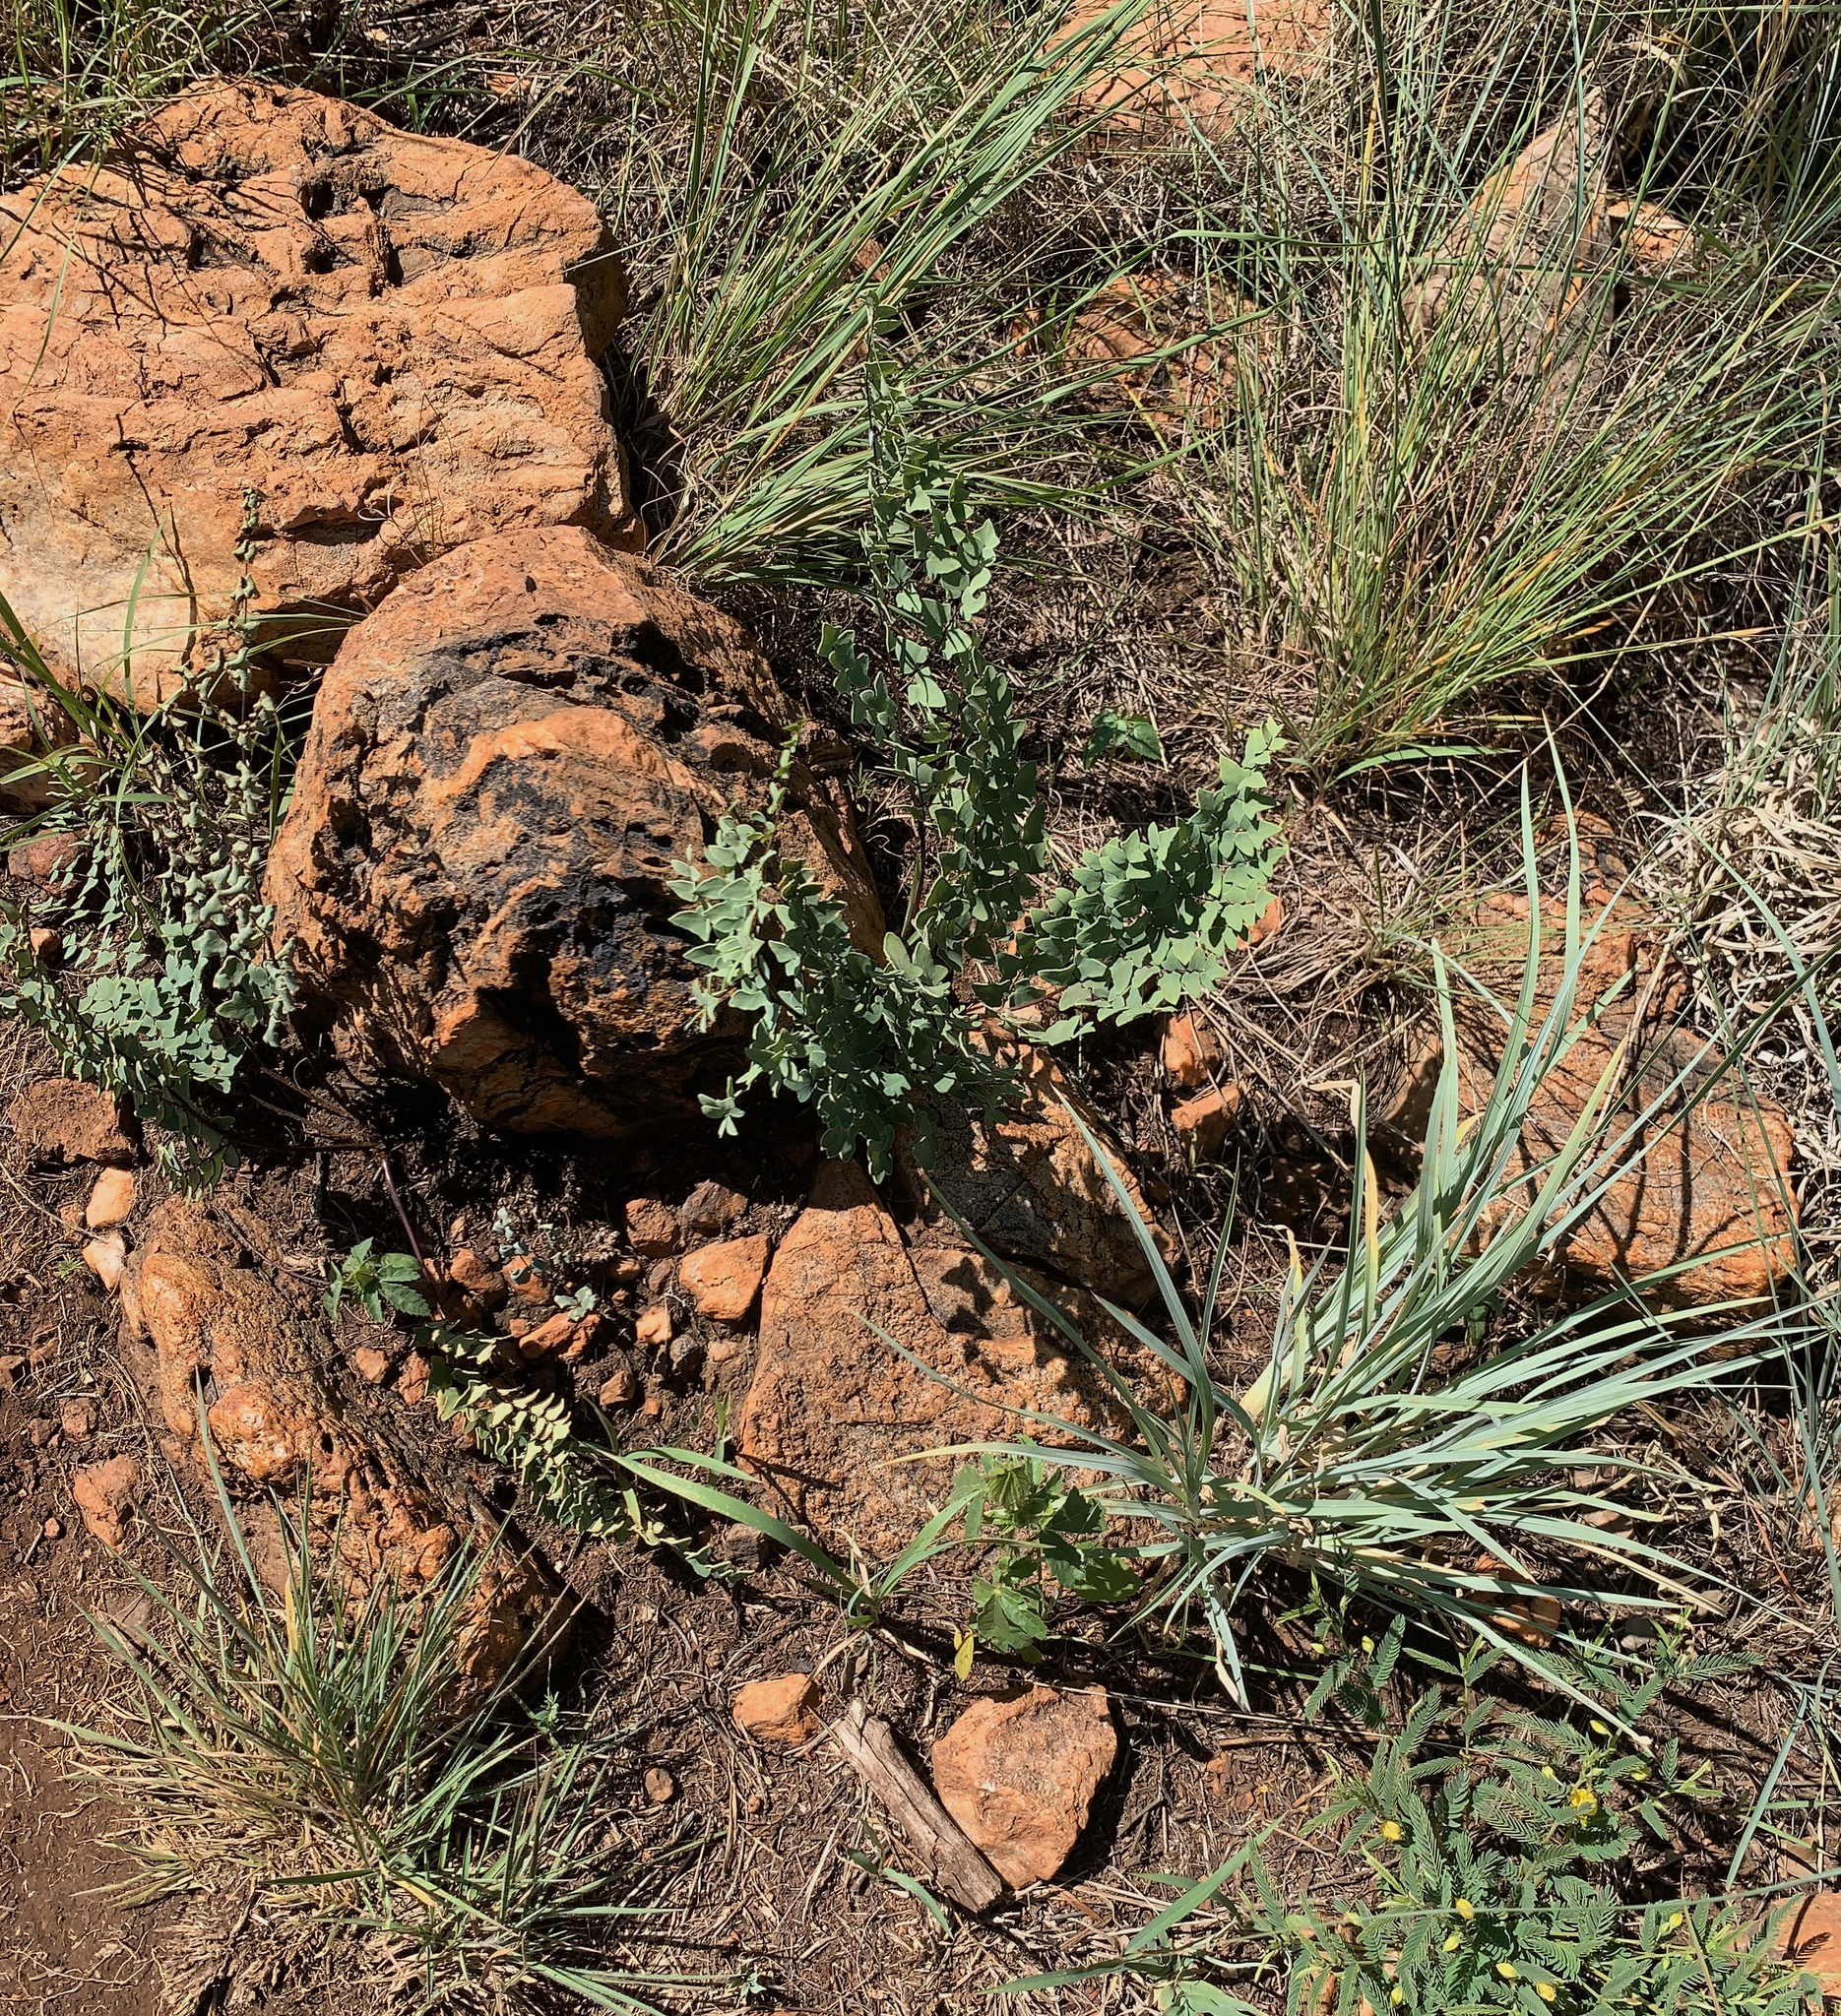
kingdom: Plantae
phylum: Tracheophyta
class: Polypodiopsida
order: Polypodiales
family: Pteridaceae
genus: Pellaea
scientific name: Pellaea calomelanos
